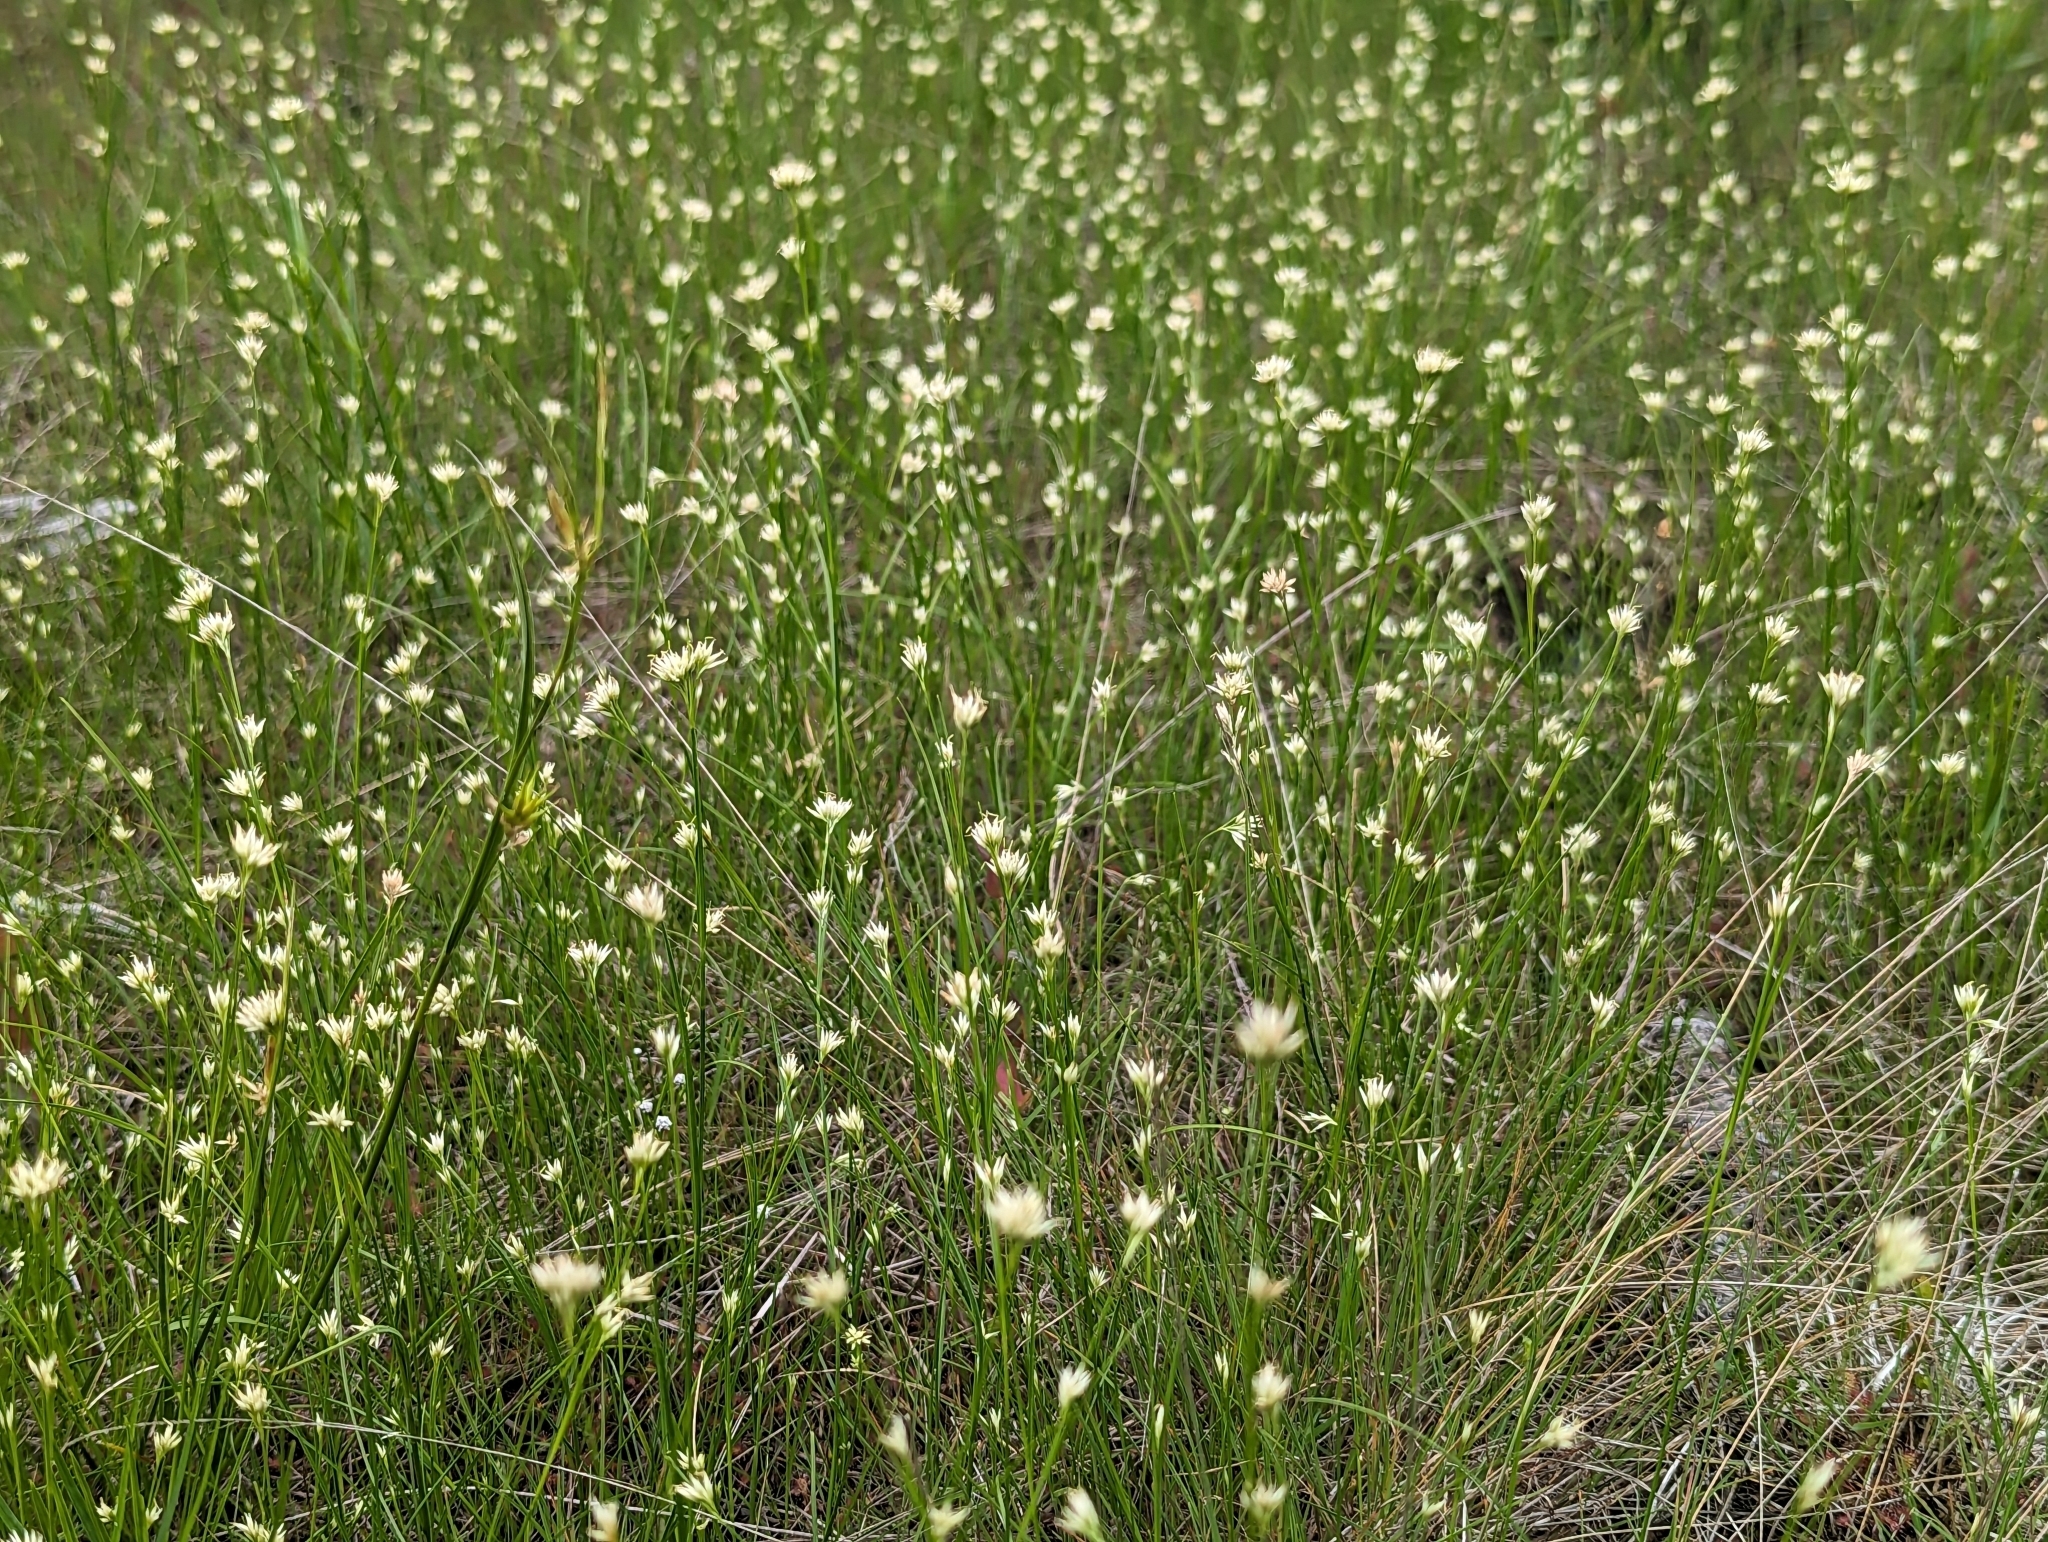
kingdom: Plantae
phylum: Tracheophyta
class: Liliopsida
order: Poales
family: Cyperaceae
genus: Rhynchospora
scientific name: Rhynchospora alba
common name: White beak-sedge
